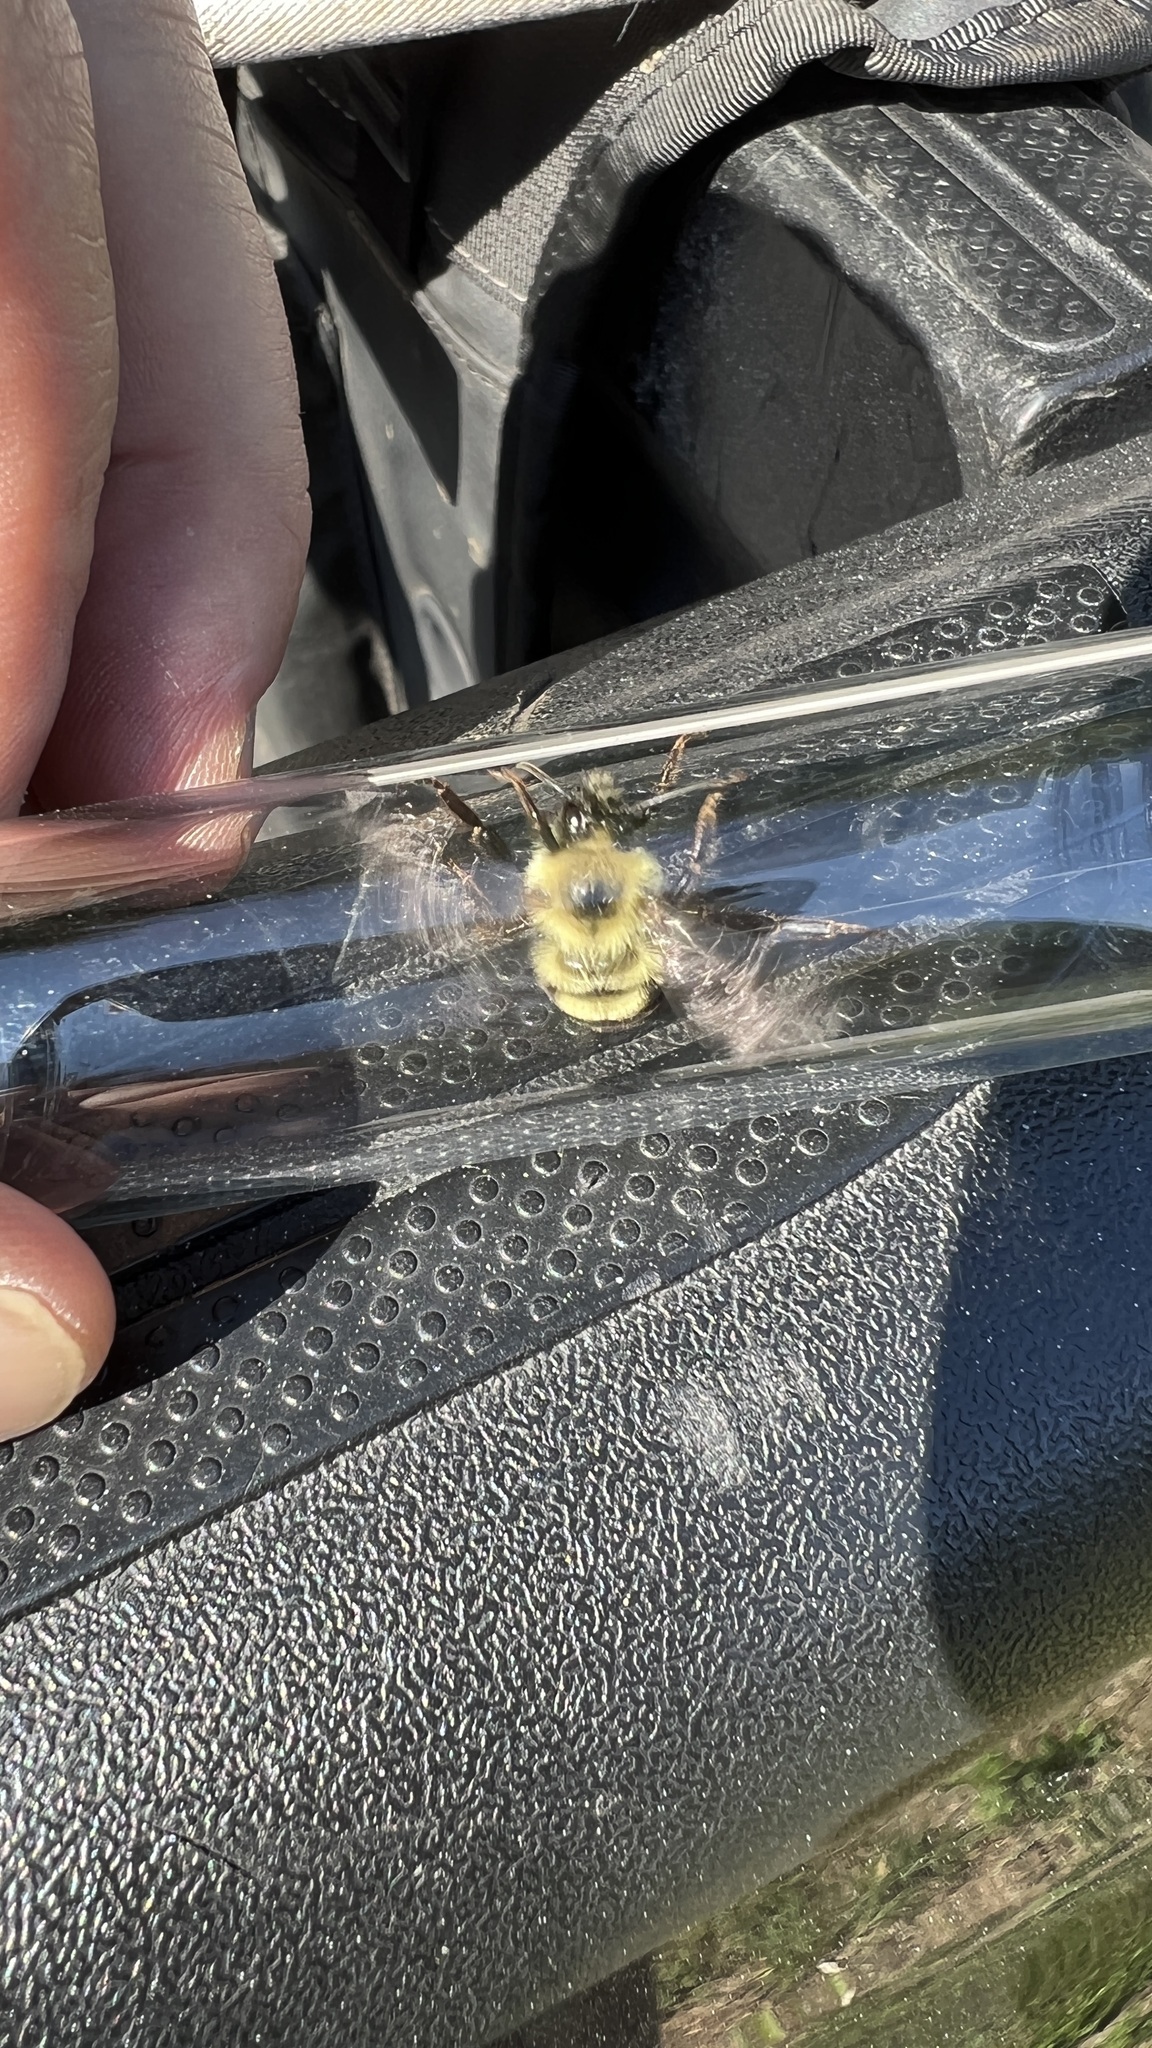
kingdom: Animalia
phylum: Arthropoda
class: Insecta
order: Hymenoptera
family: Apidae
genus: Bombus
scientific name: Bombus bimaculatus
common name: Two-spotted bumble bee
